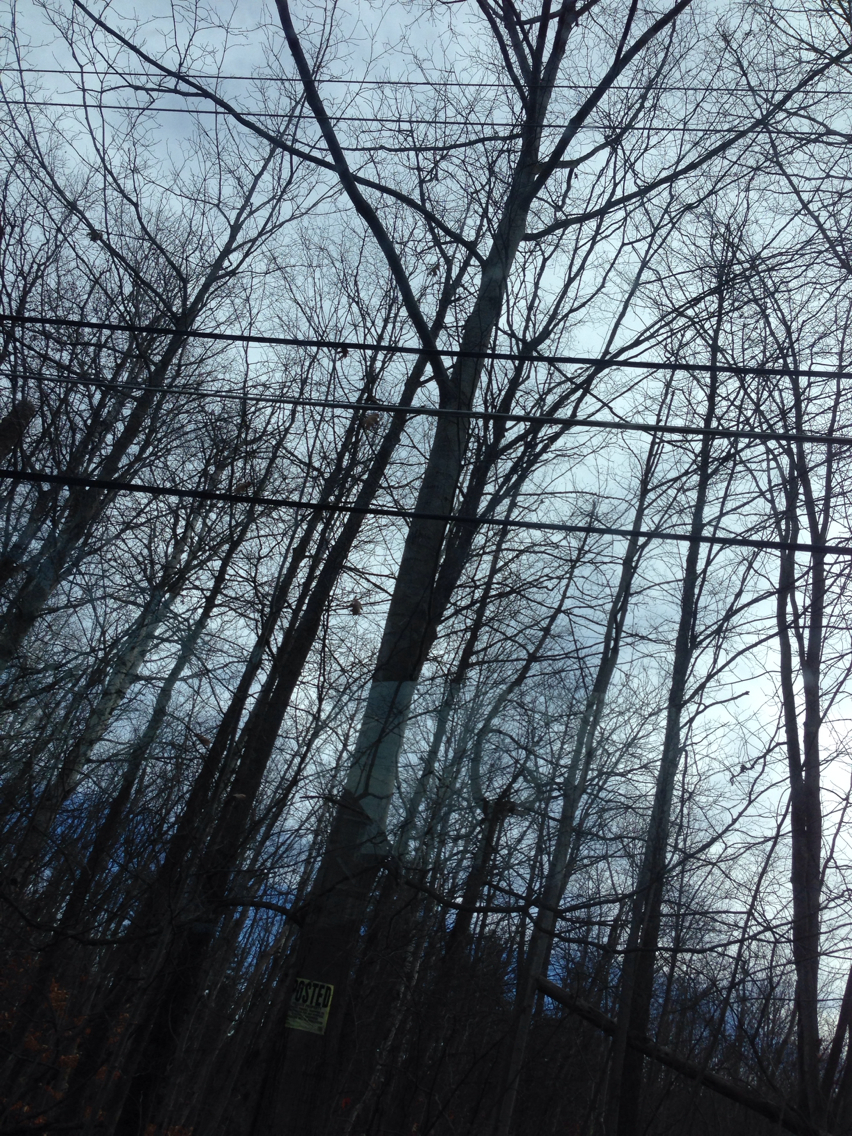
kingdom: Plantae
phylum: Tracheophyta
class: Magnoliopsida
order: Fagales
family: Fagaceae
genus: Quercus
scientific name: Quercus rubra
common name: Red oak
